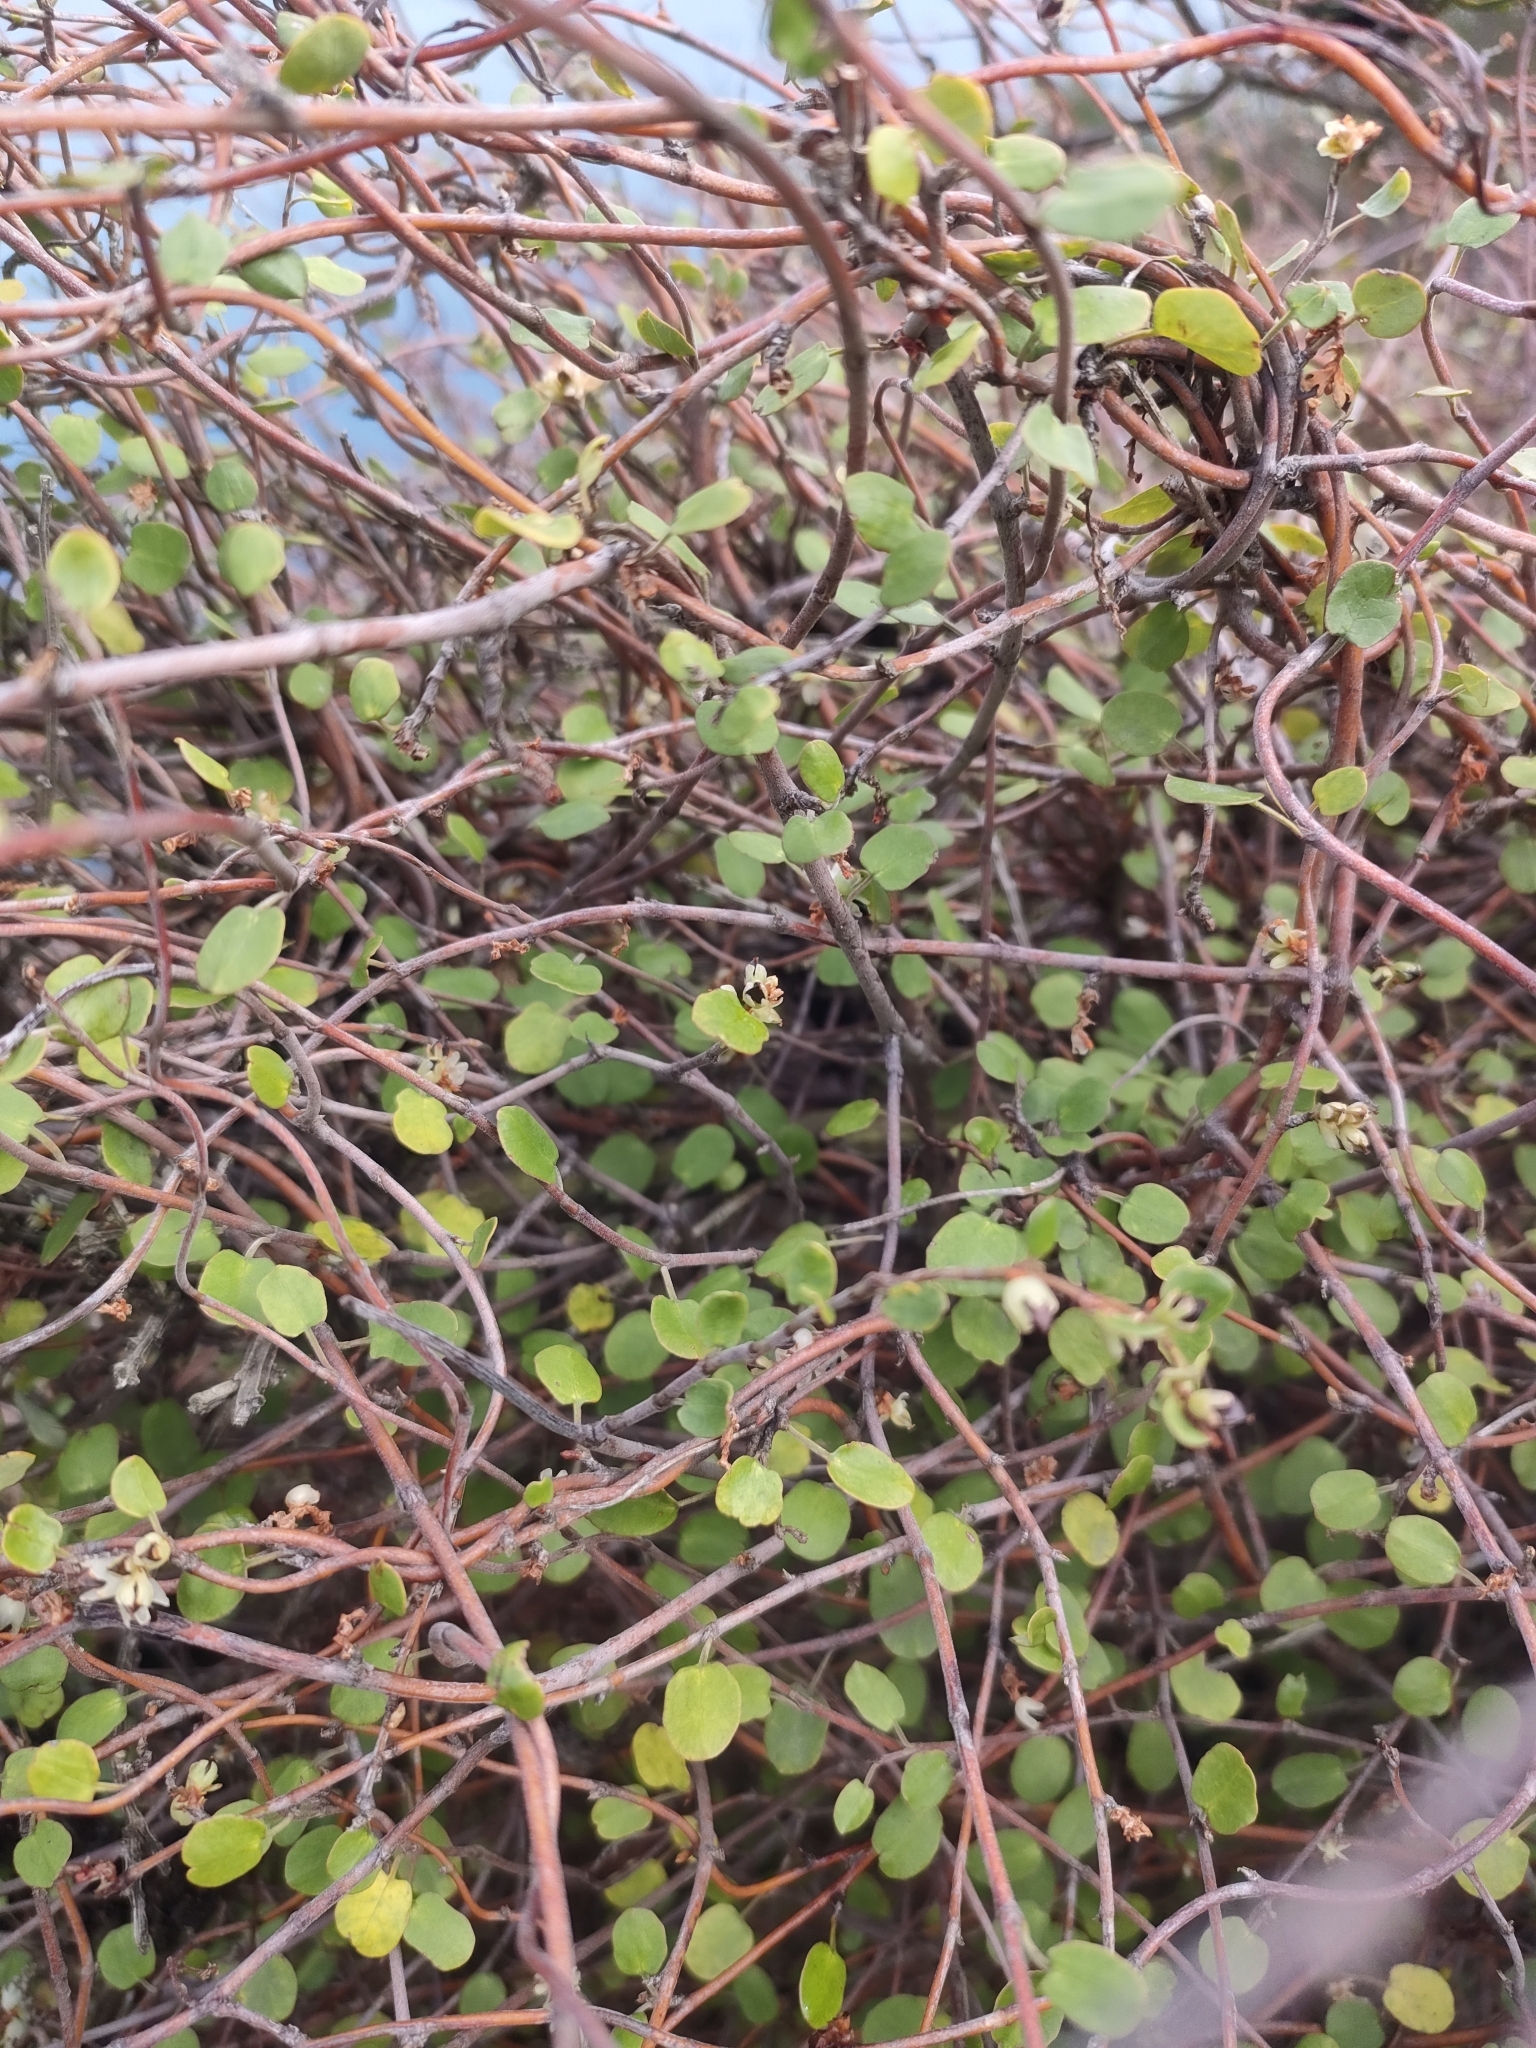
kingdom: Plantae
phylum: Tracheophyta
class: Magnoliopsida
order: Caryophyllales
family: Polygonaceae
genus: Muehlenbeckia
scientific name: Muehlenbeckia complexa
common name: Wireplant
